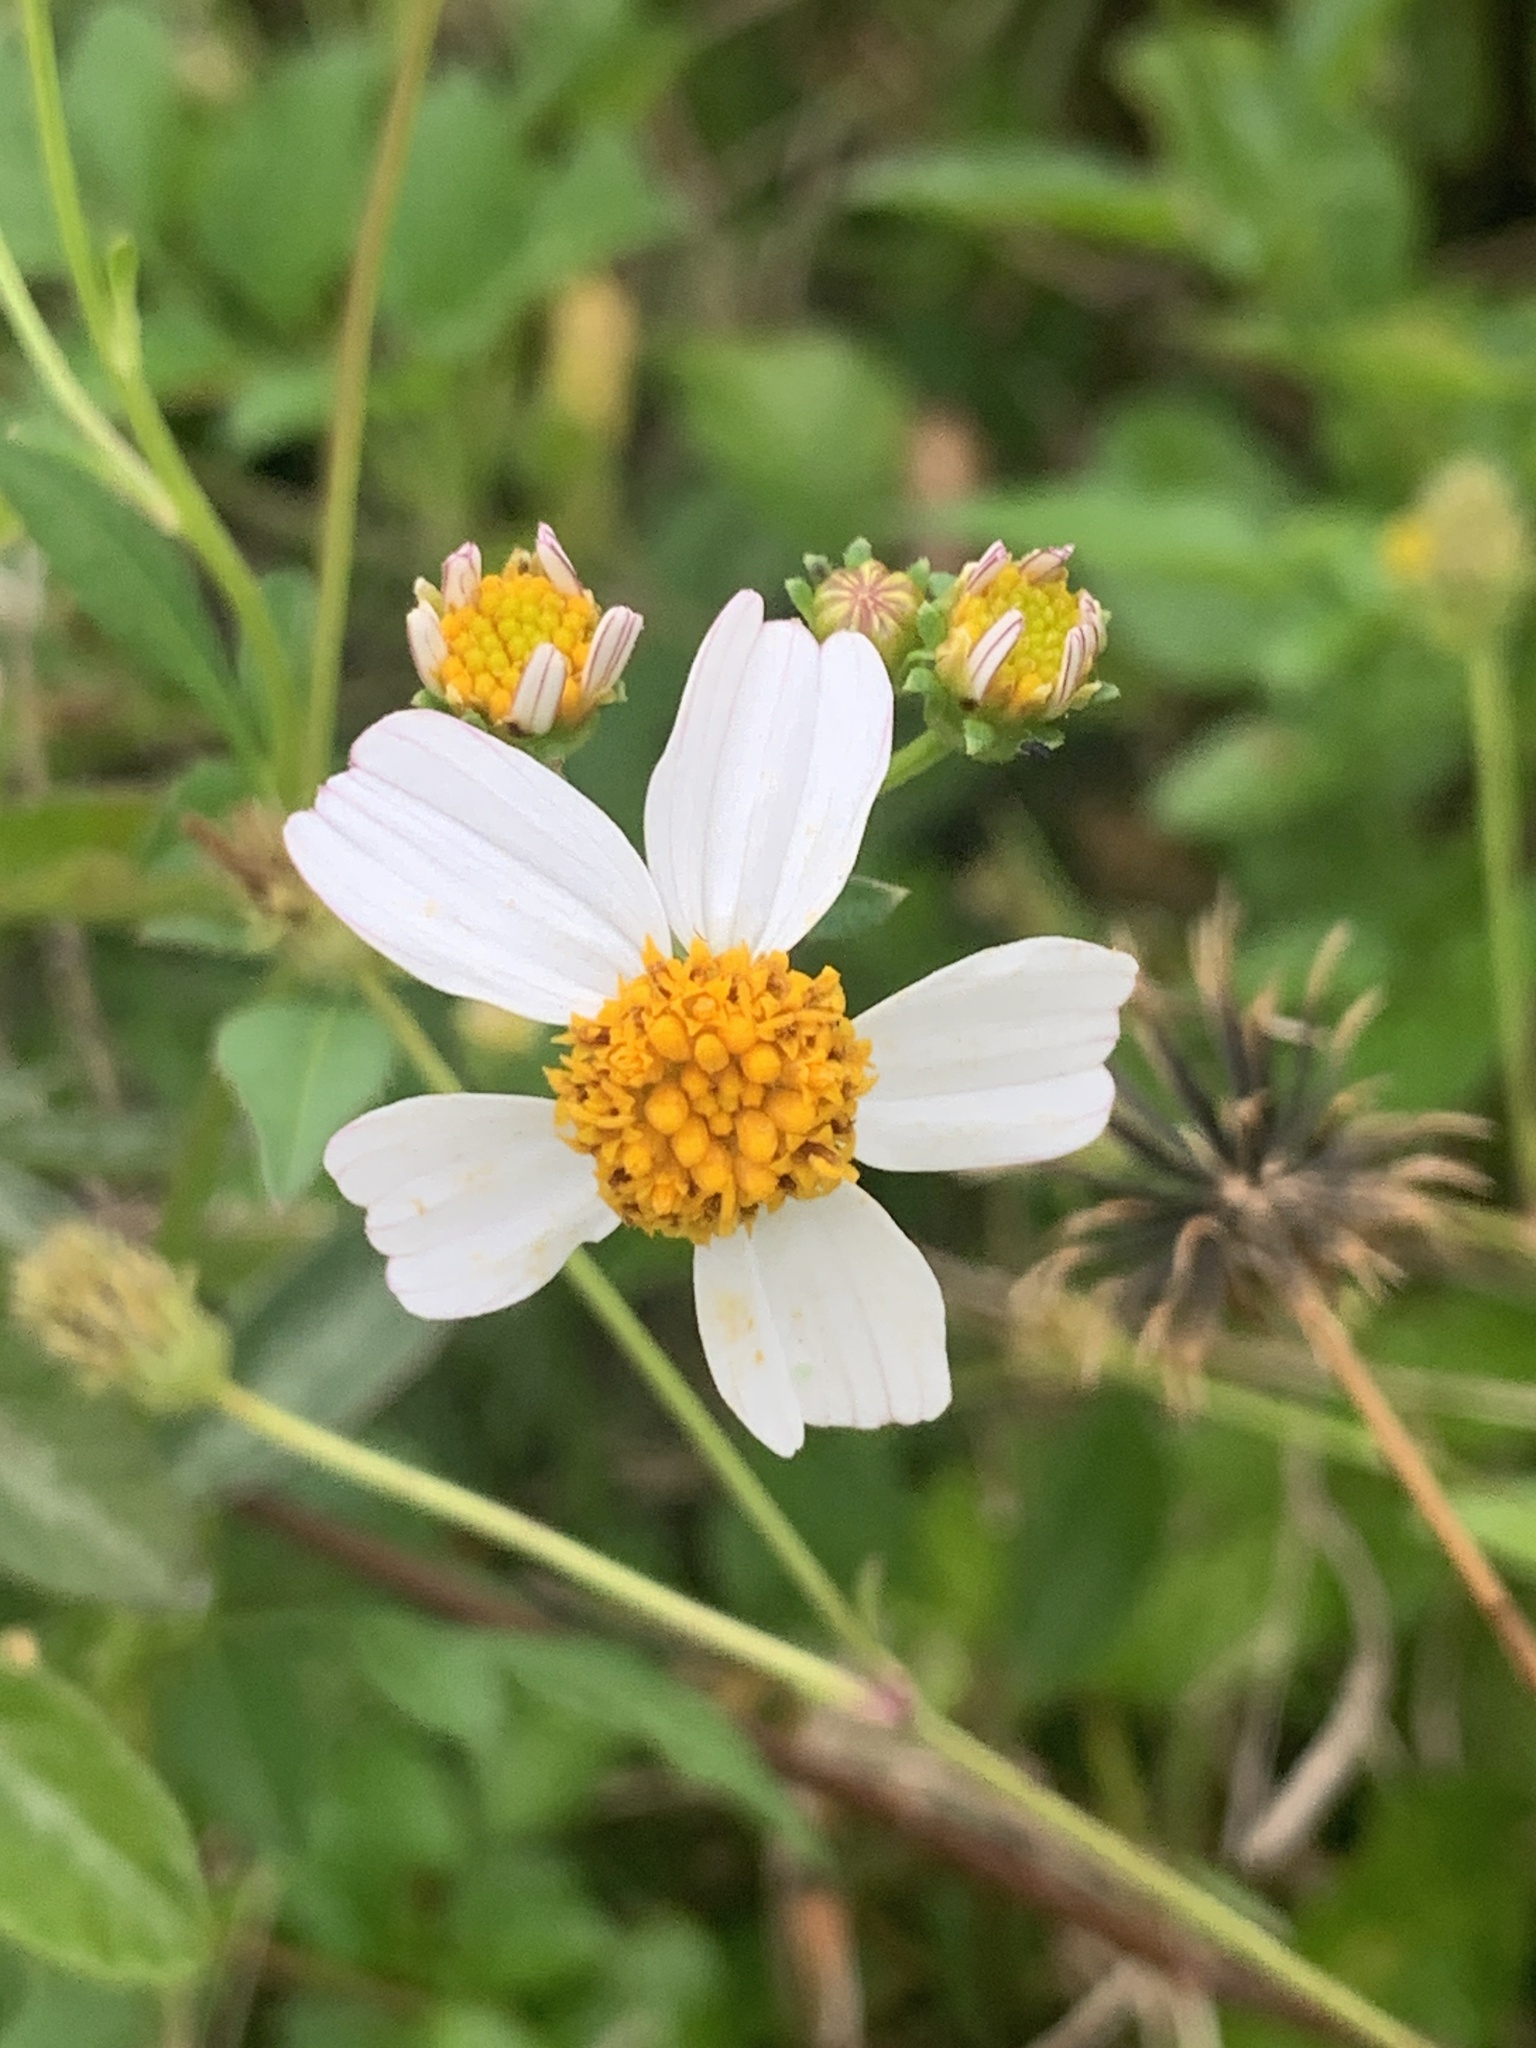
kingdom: Plantae
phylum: Tracheophyta
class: Magnoliopsida
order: Asterales
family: Asteraceae
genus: Bidens
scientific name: Bidens alba
